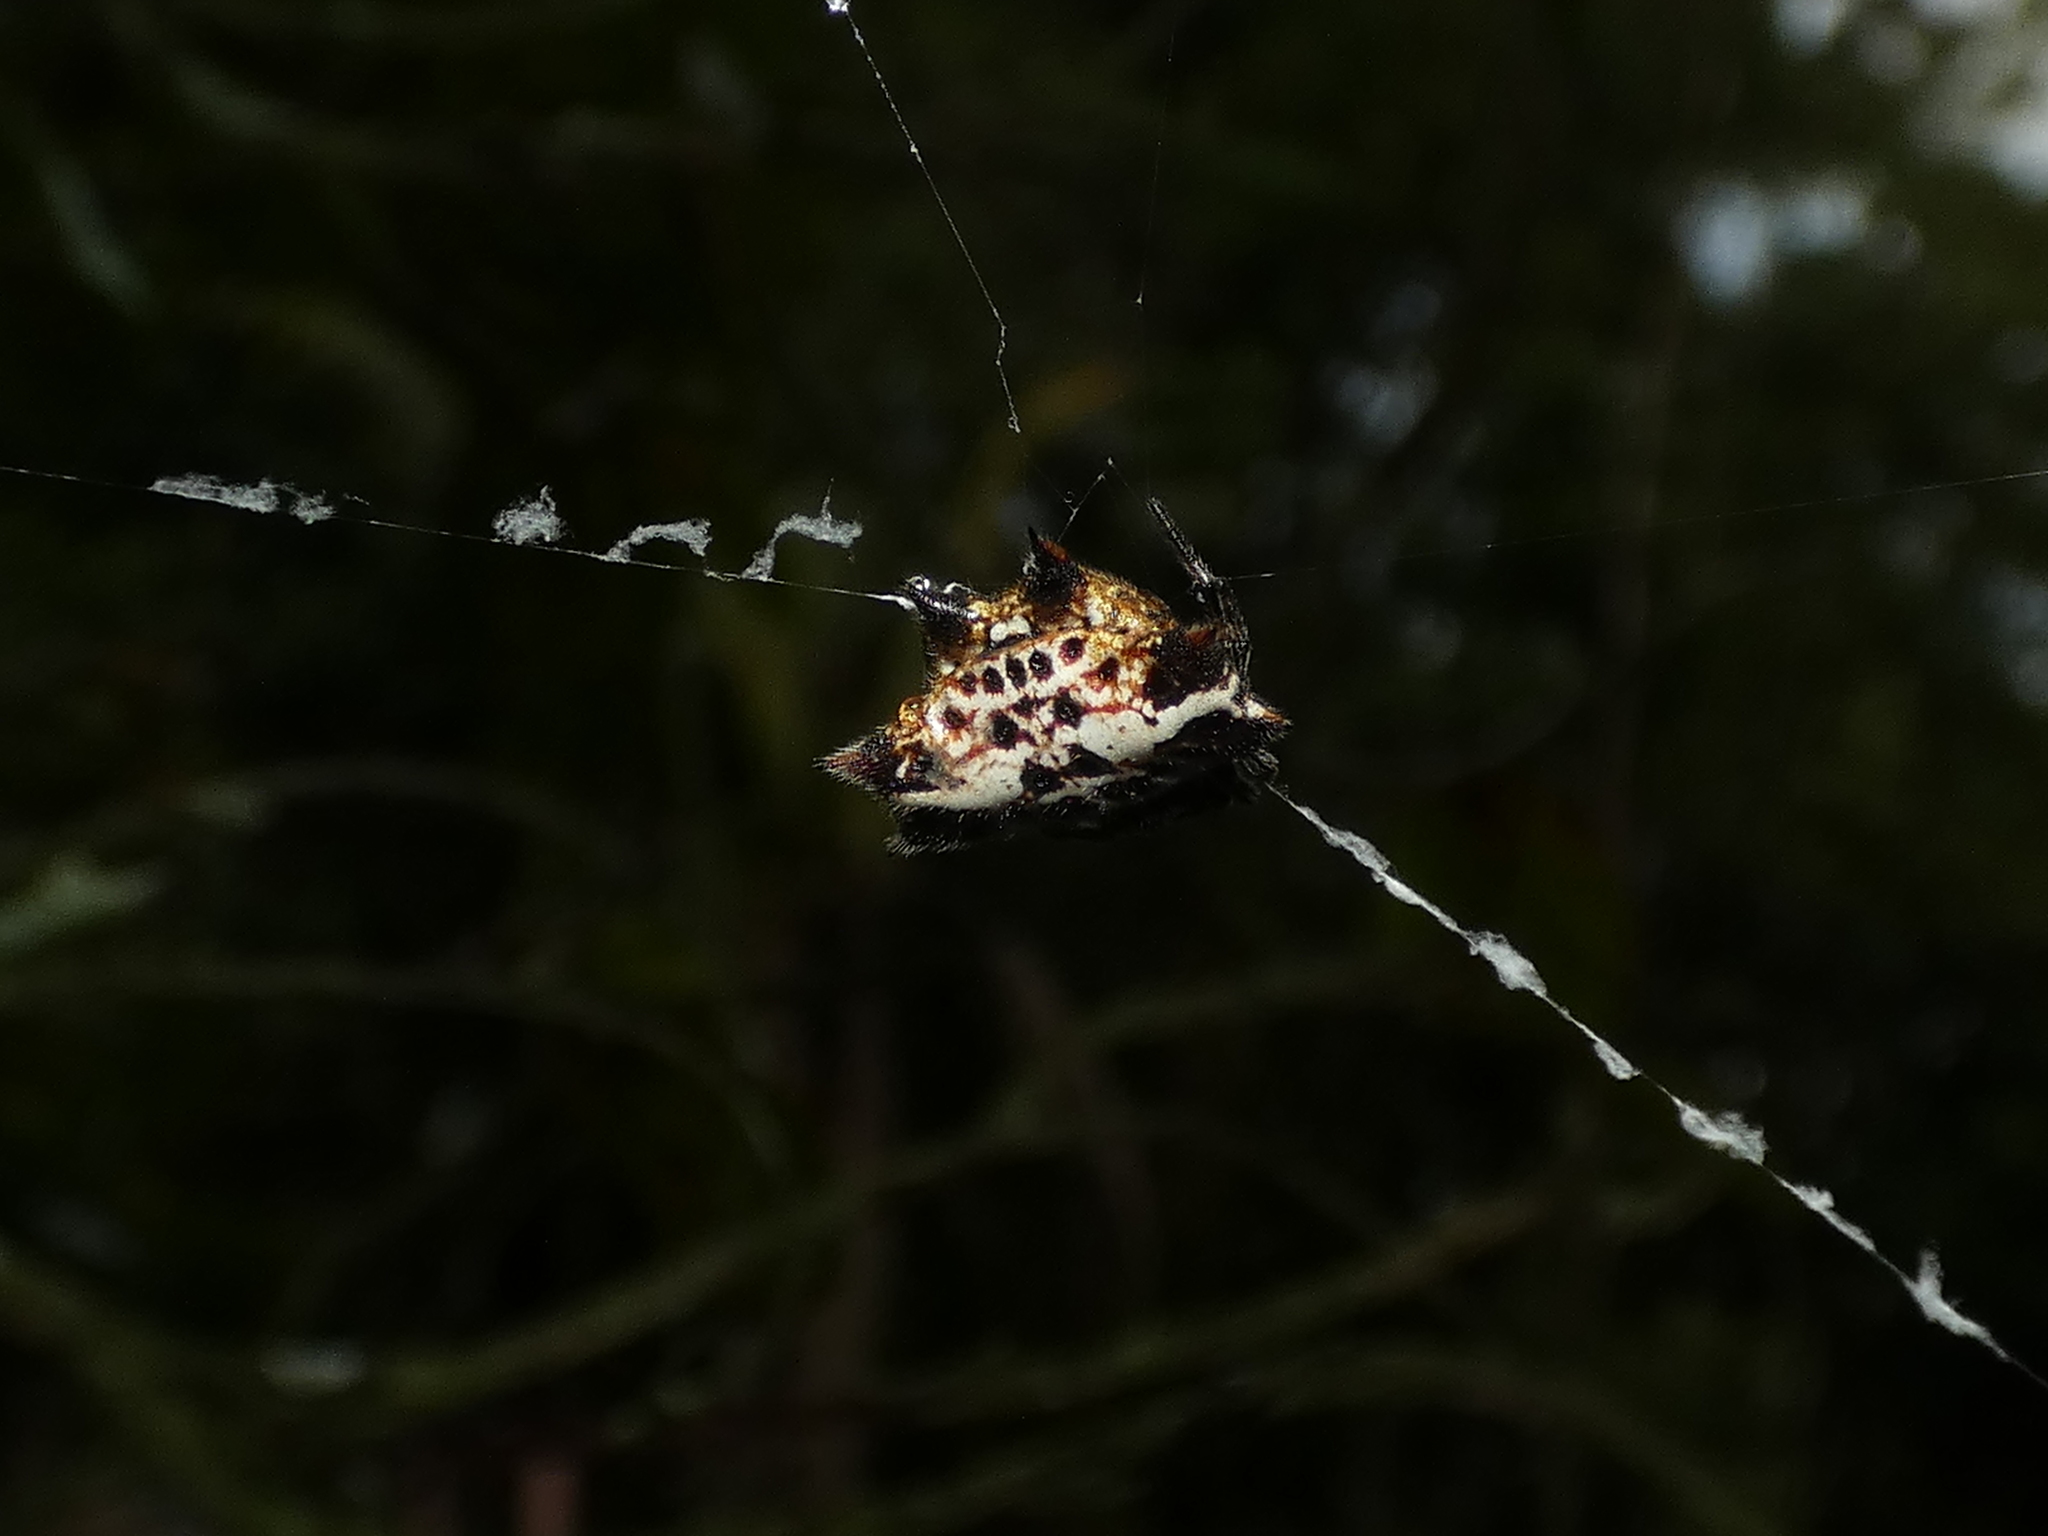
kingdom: Animalia
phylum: Arthropoda
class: Arachnida
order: Araneae
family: Araneidae
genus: Gasteracantha
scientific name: Gasteracantha cancriformis
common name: Orb weavers
